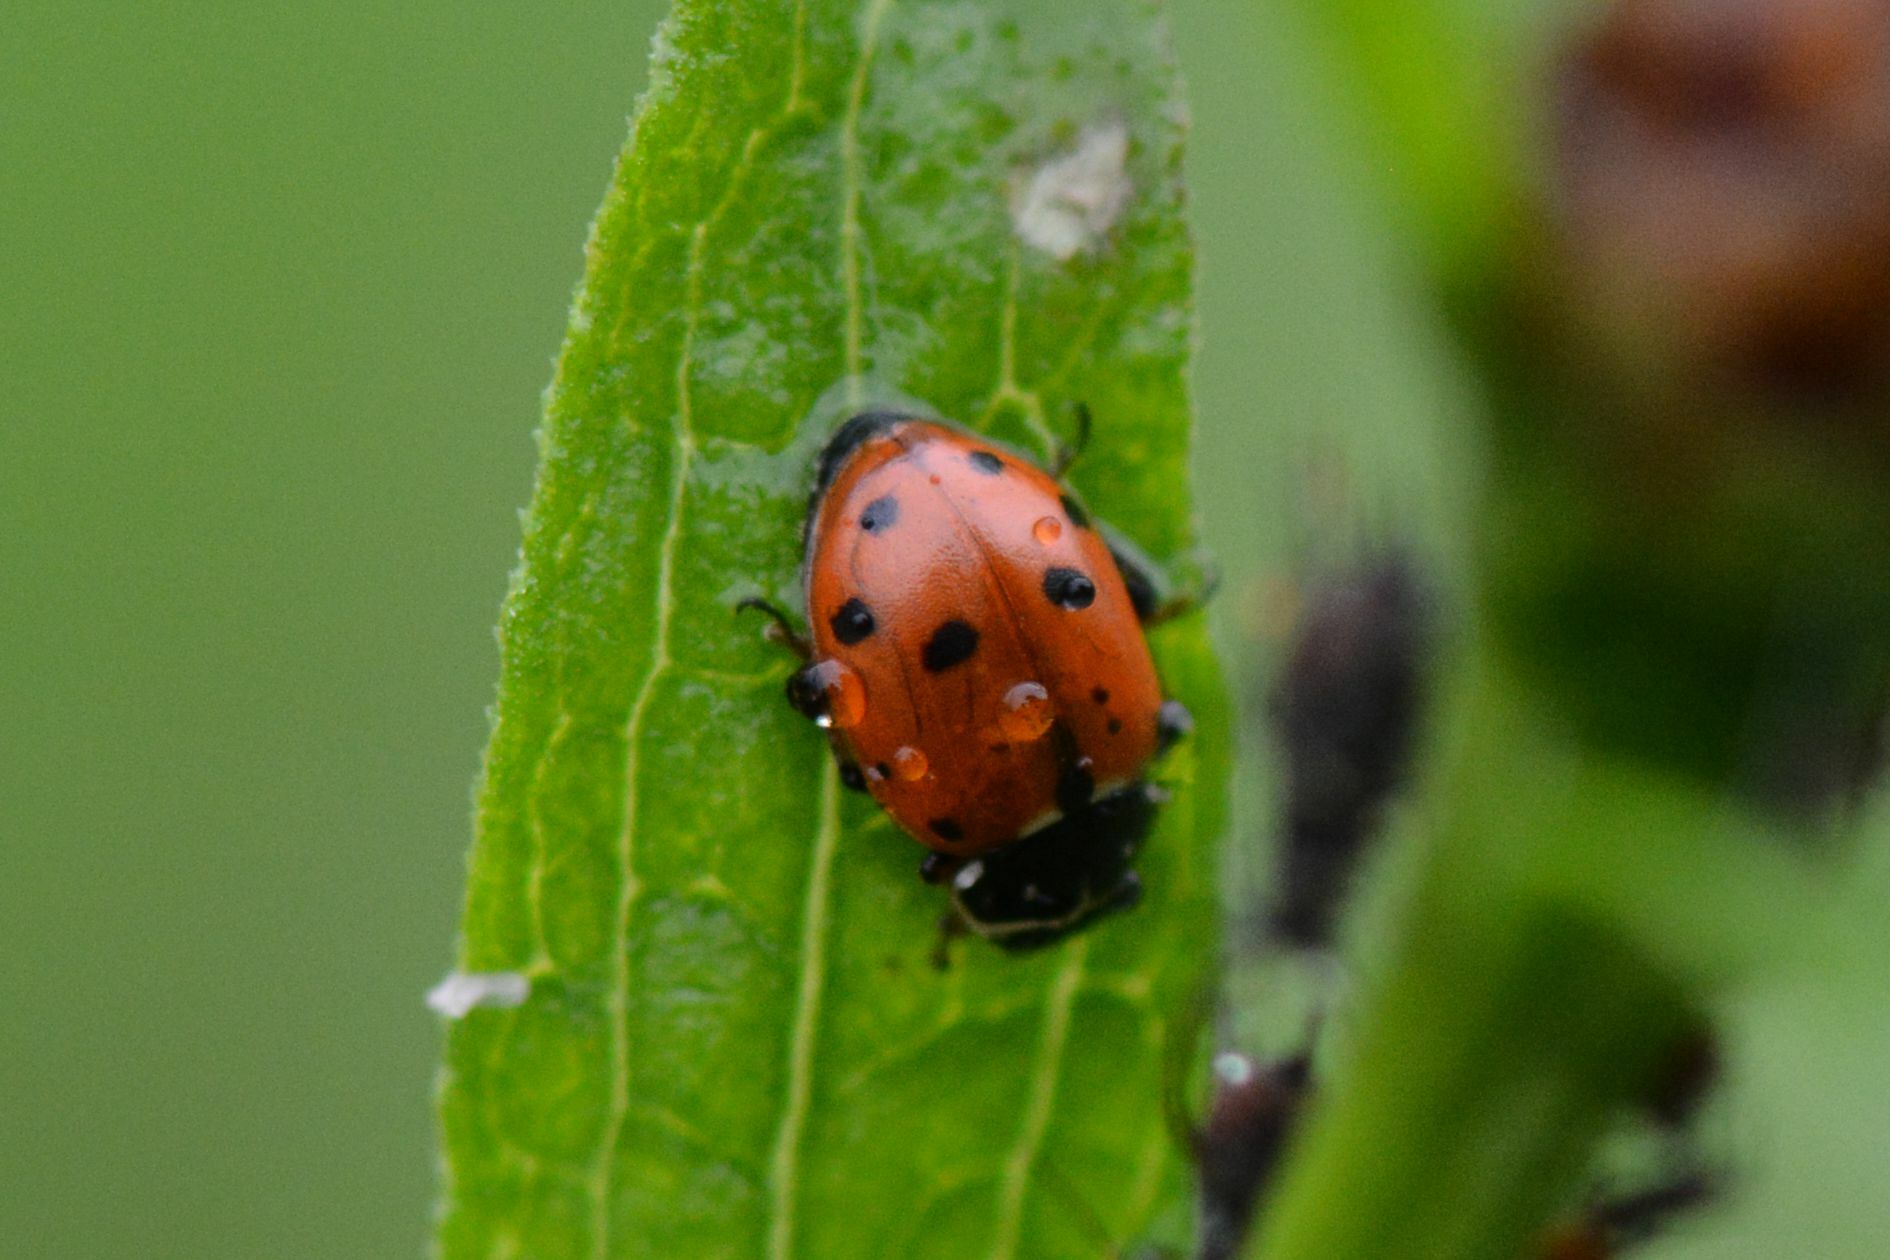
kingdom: Animalia
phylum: Arthropoda
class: Insecta
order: Coleoptera
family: Coccinellidae
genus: Hippodamia
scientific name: Hippodamia variegata
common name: Ladybird beetle
